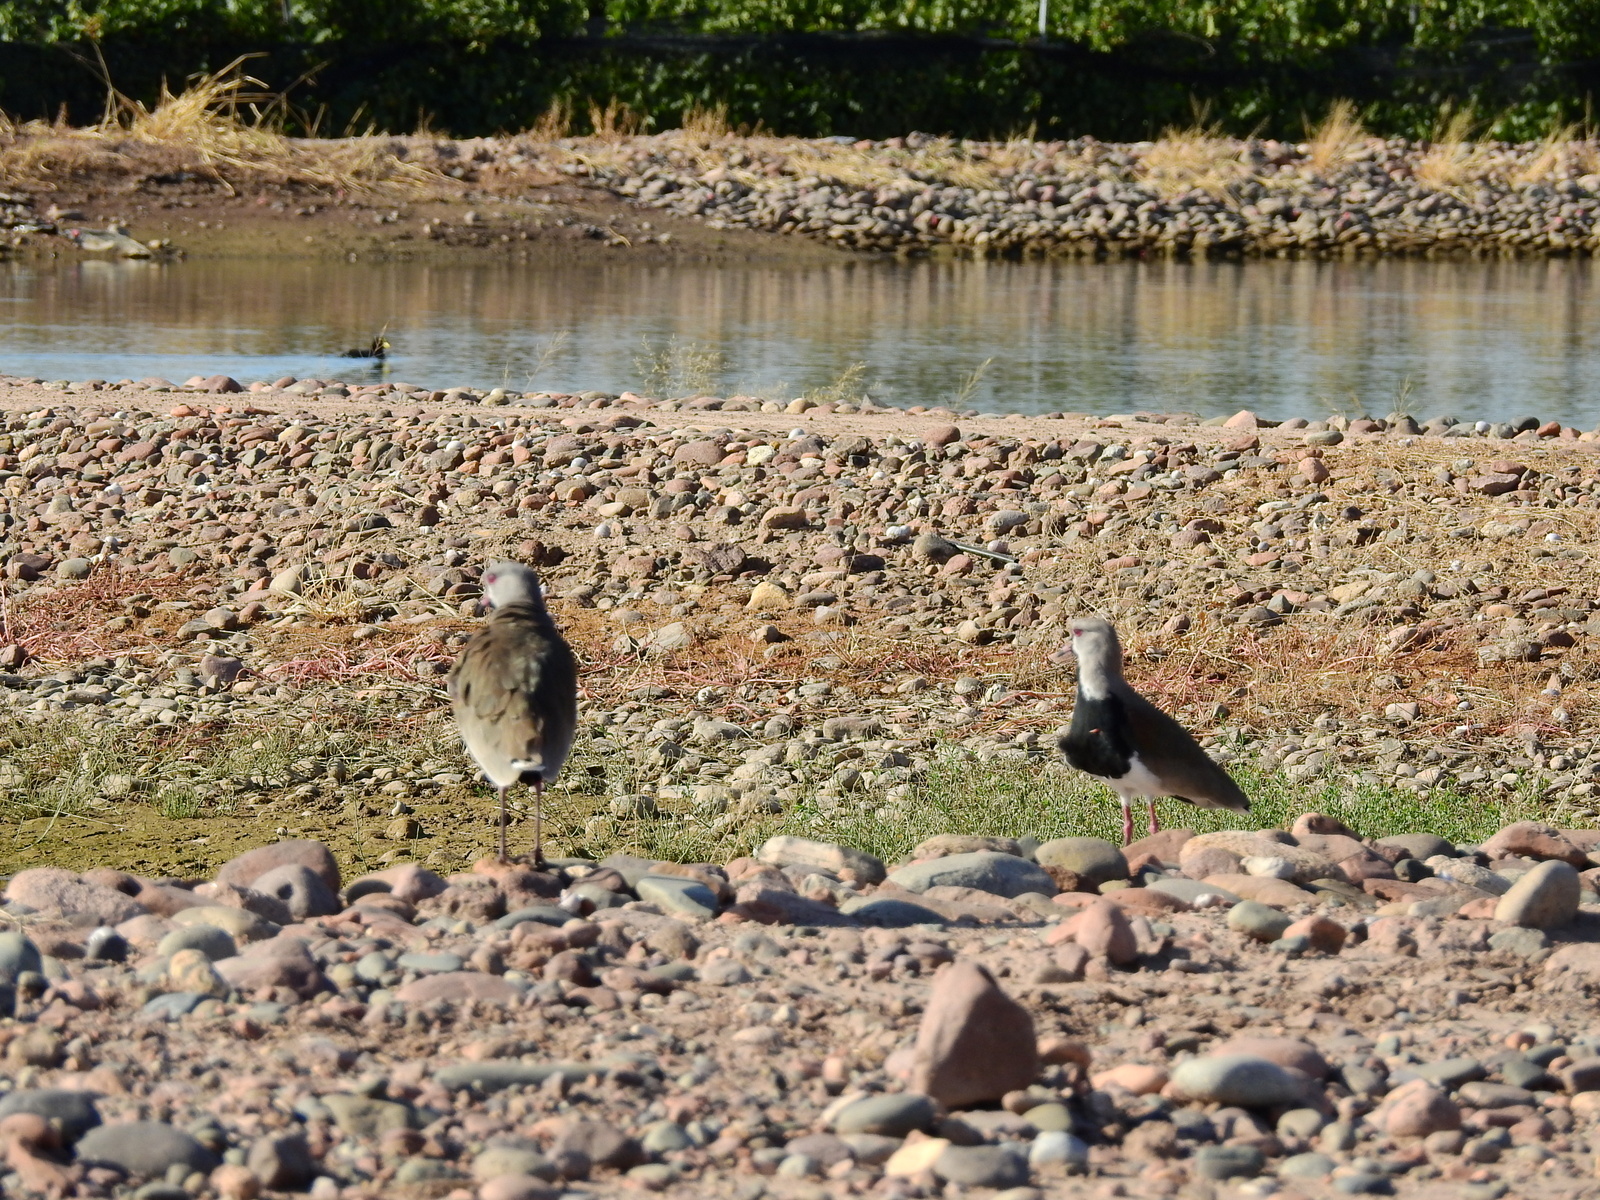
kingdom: Animalia
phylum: Chordata
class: Aves
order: Charadriiformes
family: Charadriidae
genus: Vanellus
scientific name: Vanellus chilensis
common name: Southern lapwing
